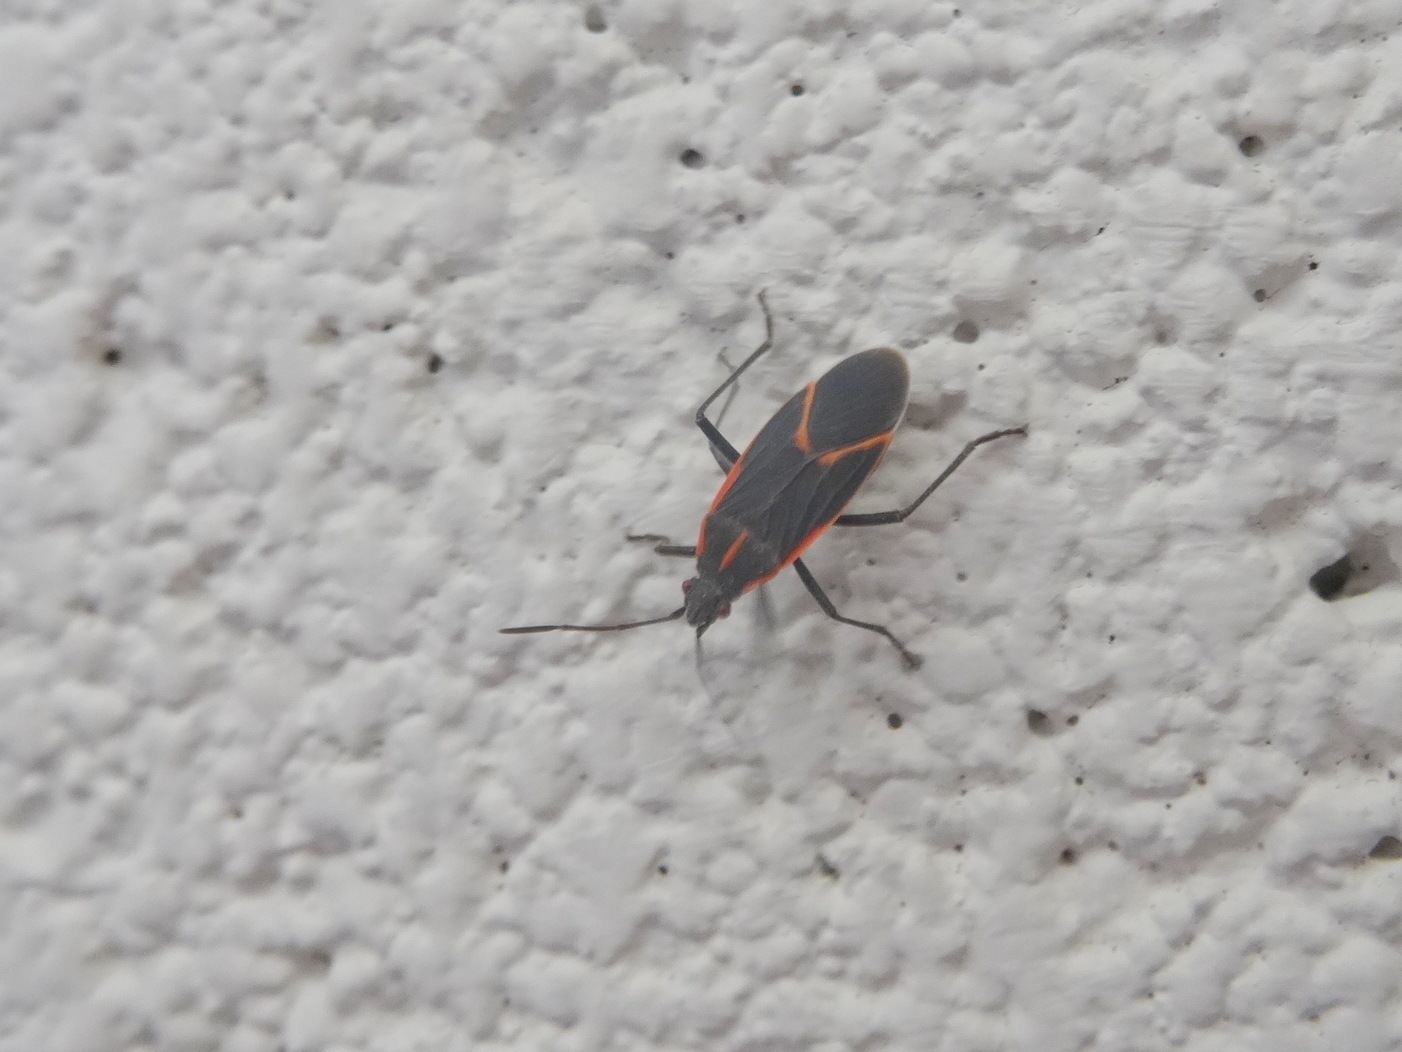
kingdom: Animalia
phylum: Arthropoda
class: Insecta
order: Hemiptera
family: Rhopalidae
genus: Boisea
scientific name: Boisea trivittata
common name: Boxelder bug
